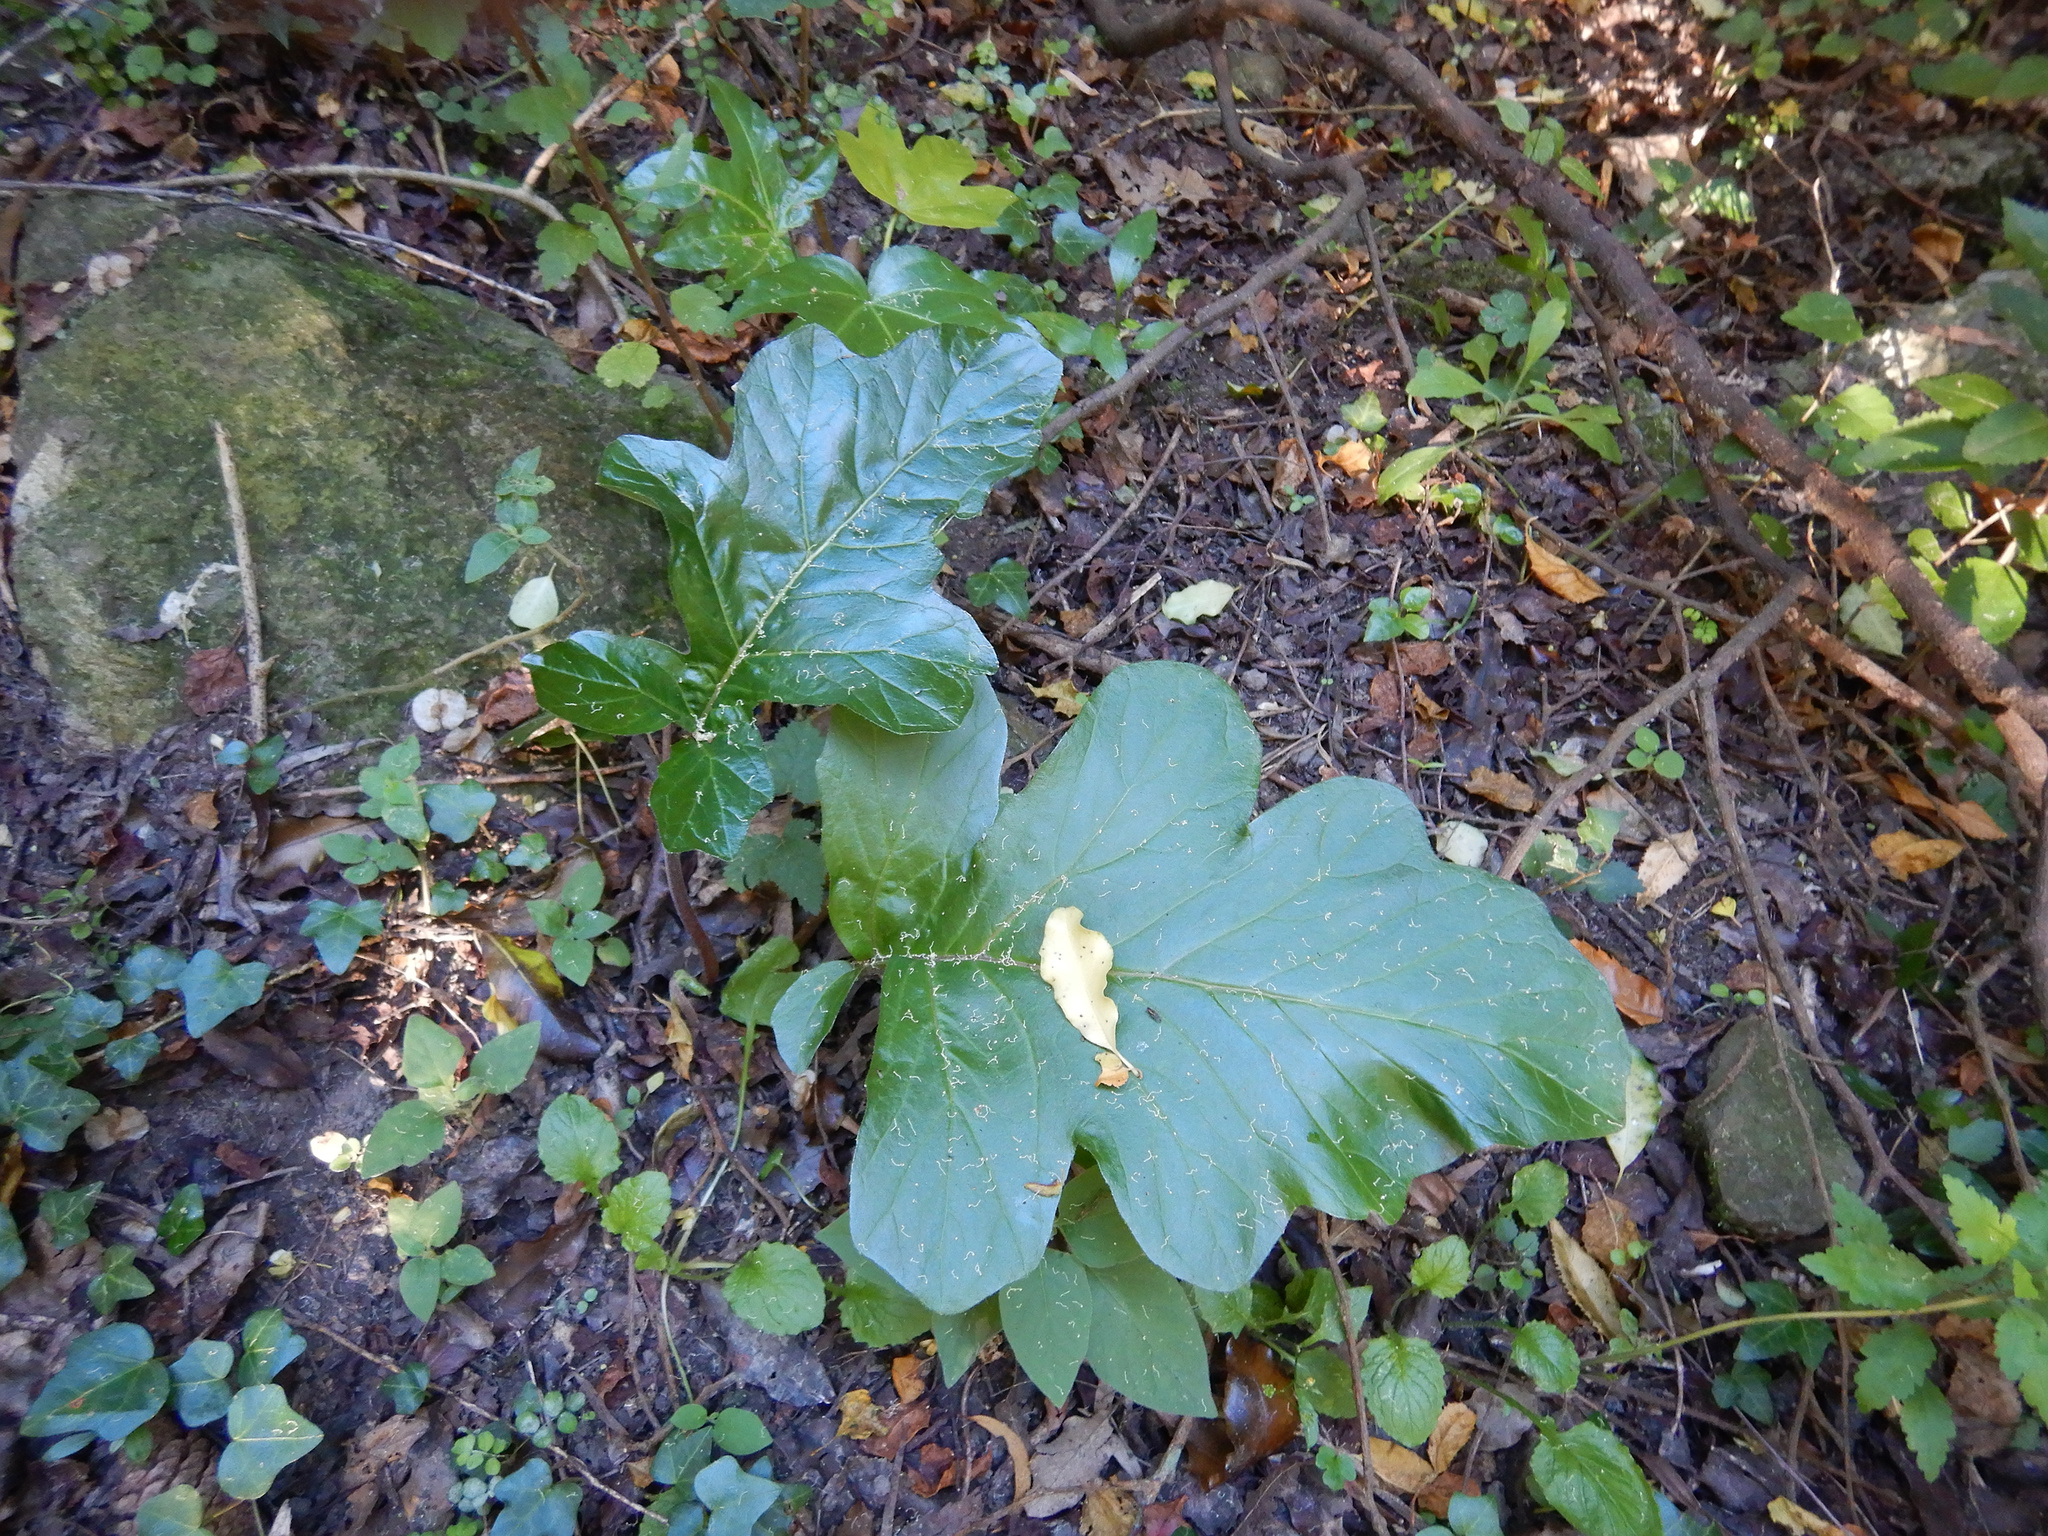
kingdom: Plantae
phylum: Tracheophyta
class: Magnoliopsida
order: Lamiales
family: Acanthaceae
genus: Acanthus
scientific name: Acanthus mollis
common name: Bear's-breech
